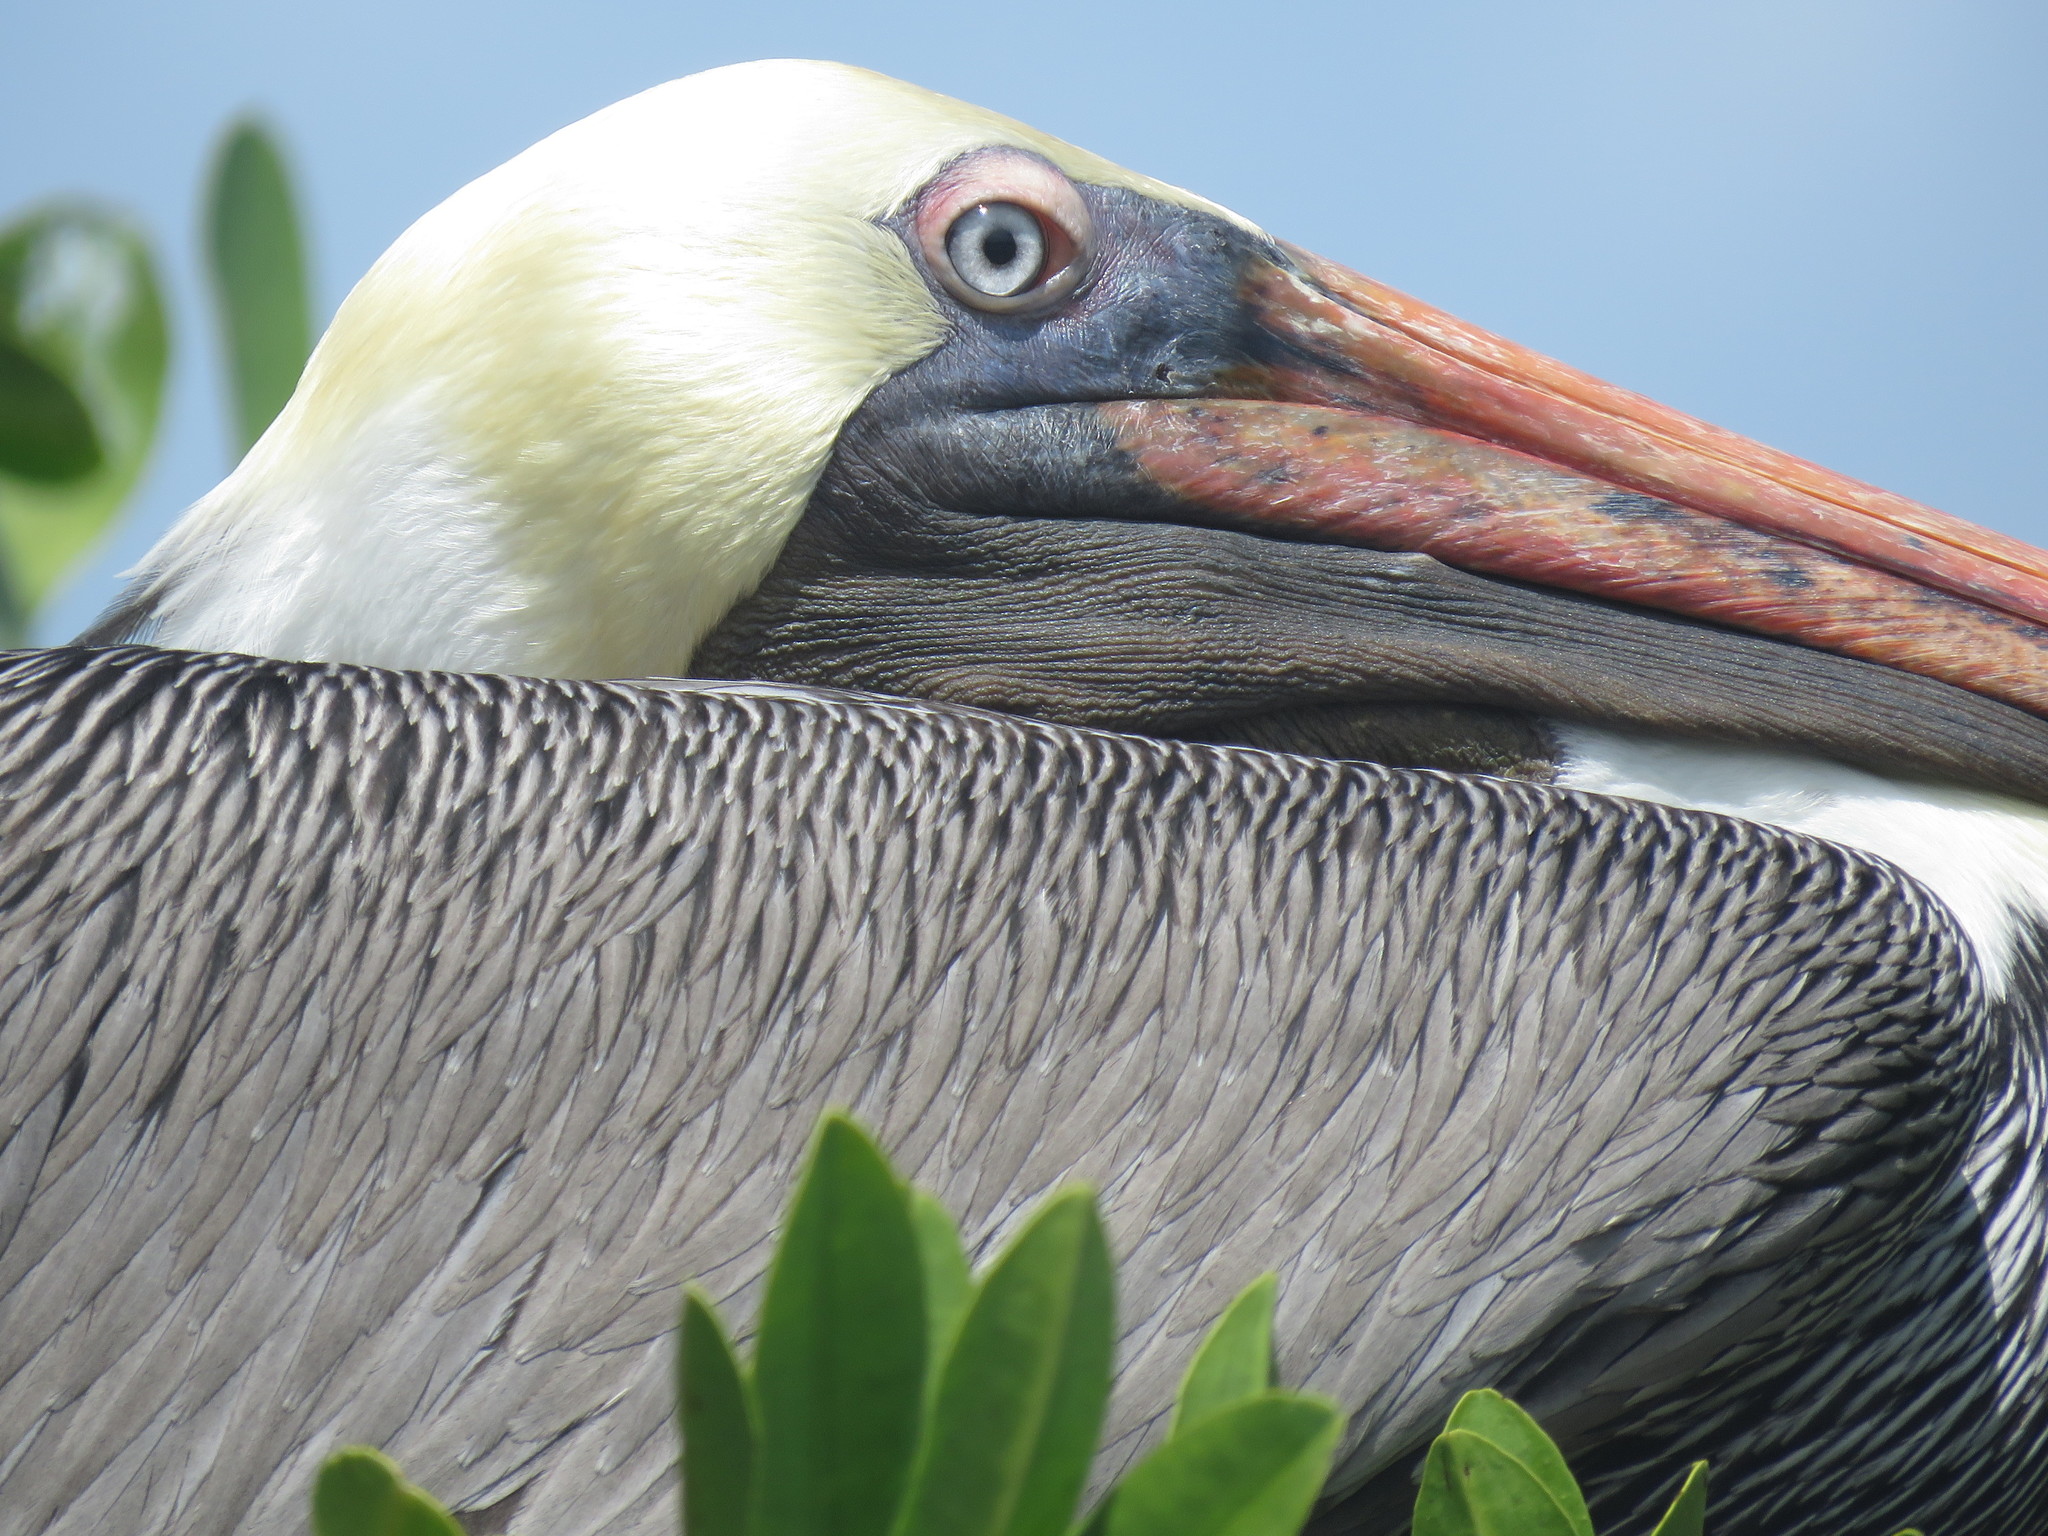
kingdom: Animalia
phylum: Chordata
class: Aves
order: Pelecaniformes
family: Pelecanidae
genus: Pelecanus
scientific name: Pelecanus occidentalis
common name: Brown pelican
